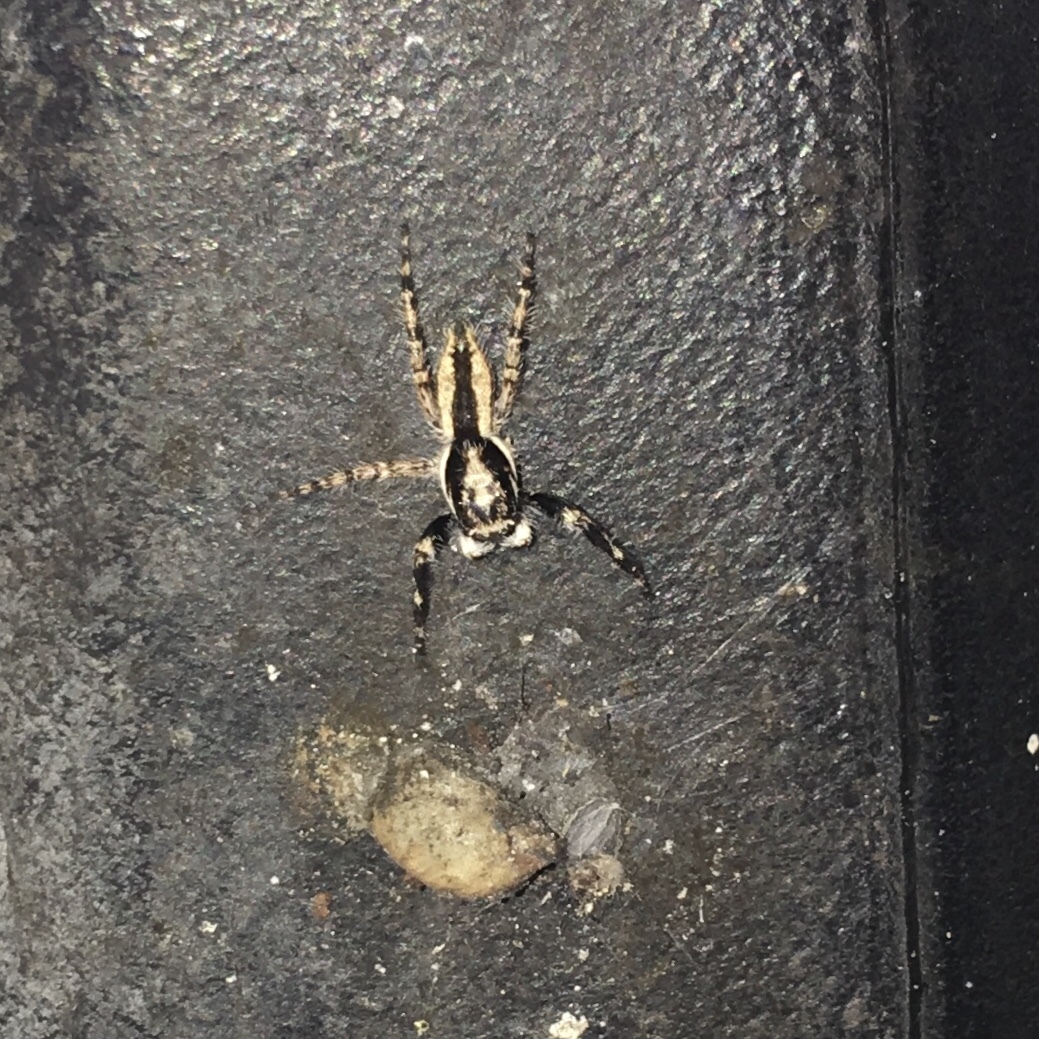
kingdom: Animalia
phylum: Arthropoda
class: Arachnida
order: Araneae
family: Salticidae
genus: Menemerus
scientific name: Menemerus bivittatus
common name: Gray wall jumper
